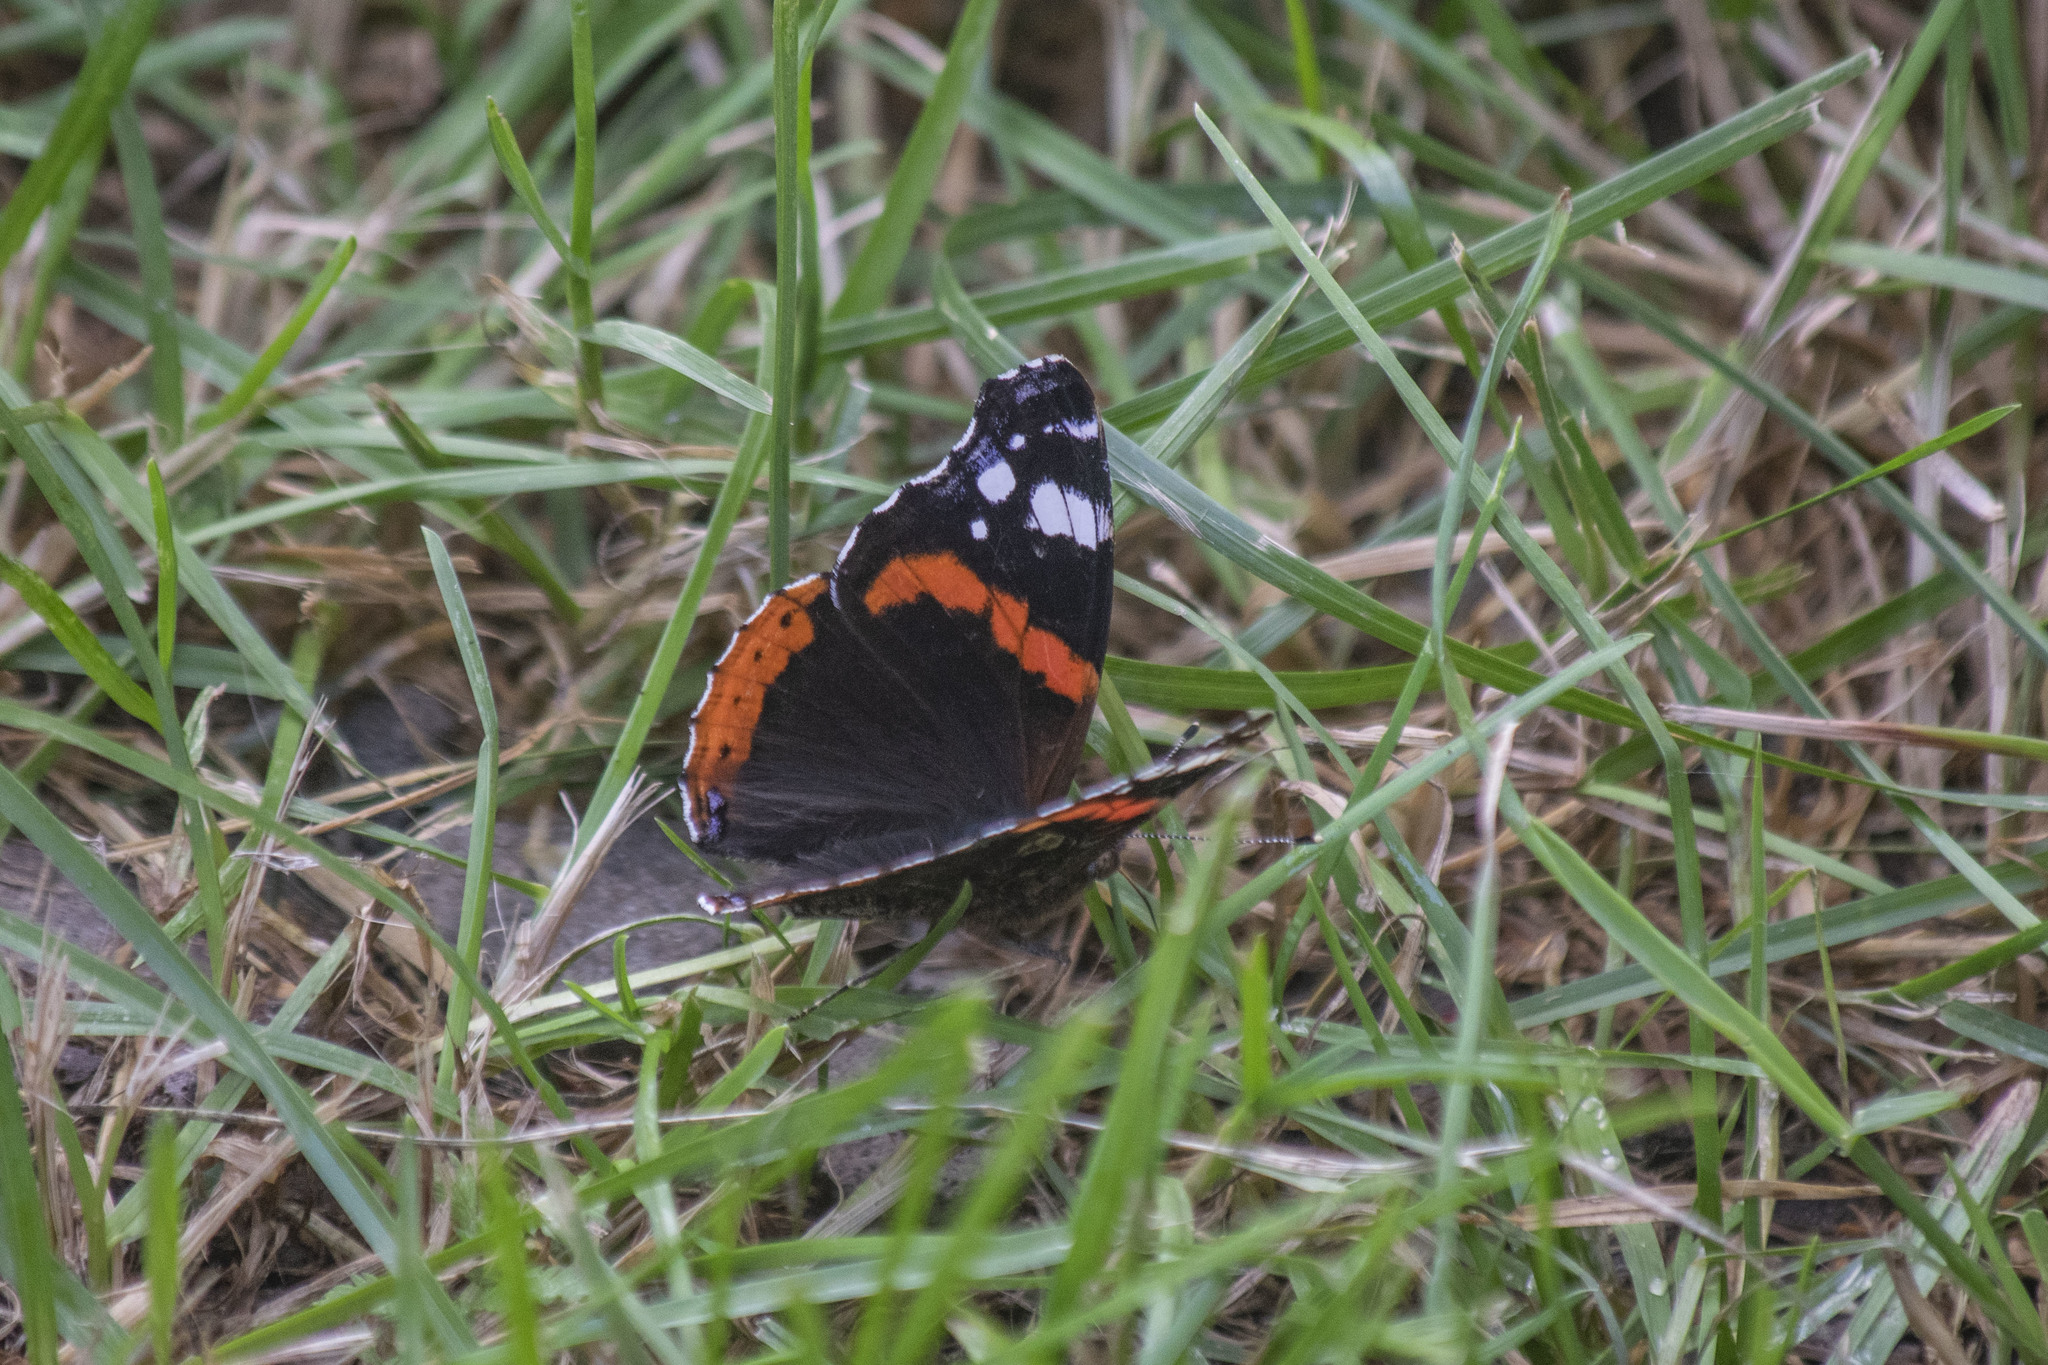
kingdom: Animalia
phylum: Arthropoda
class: Insecta
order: Lepidoptera
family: Nymphalidae
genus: Vanessa
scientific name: Vanessa atalanta
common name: Red admiral
